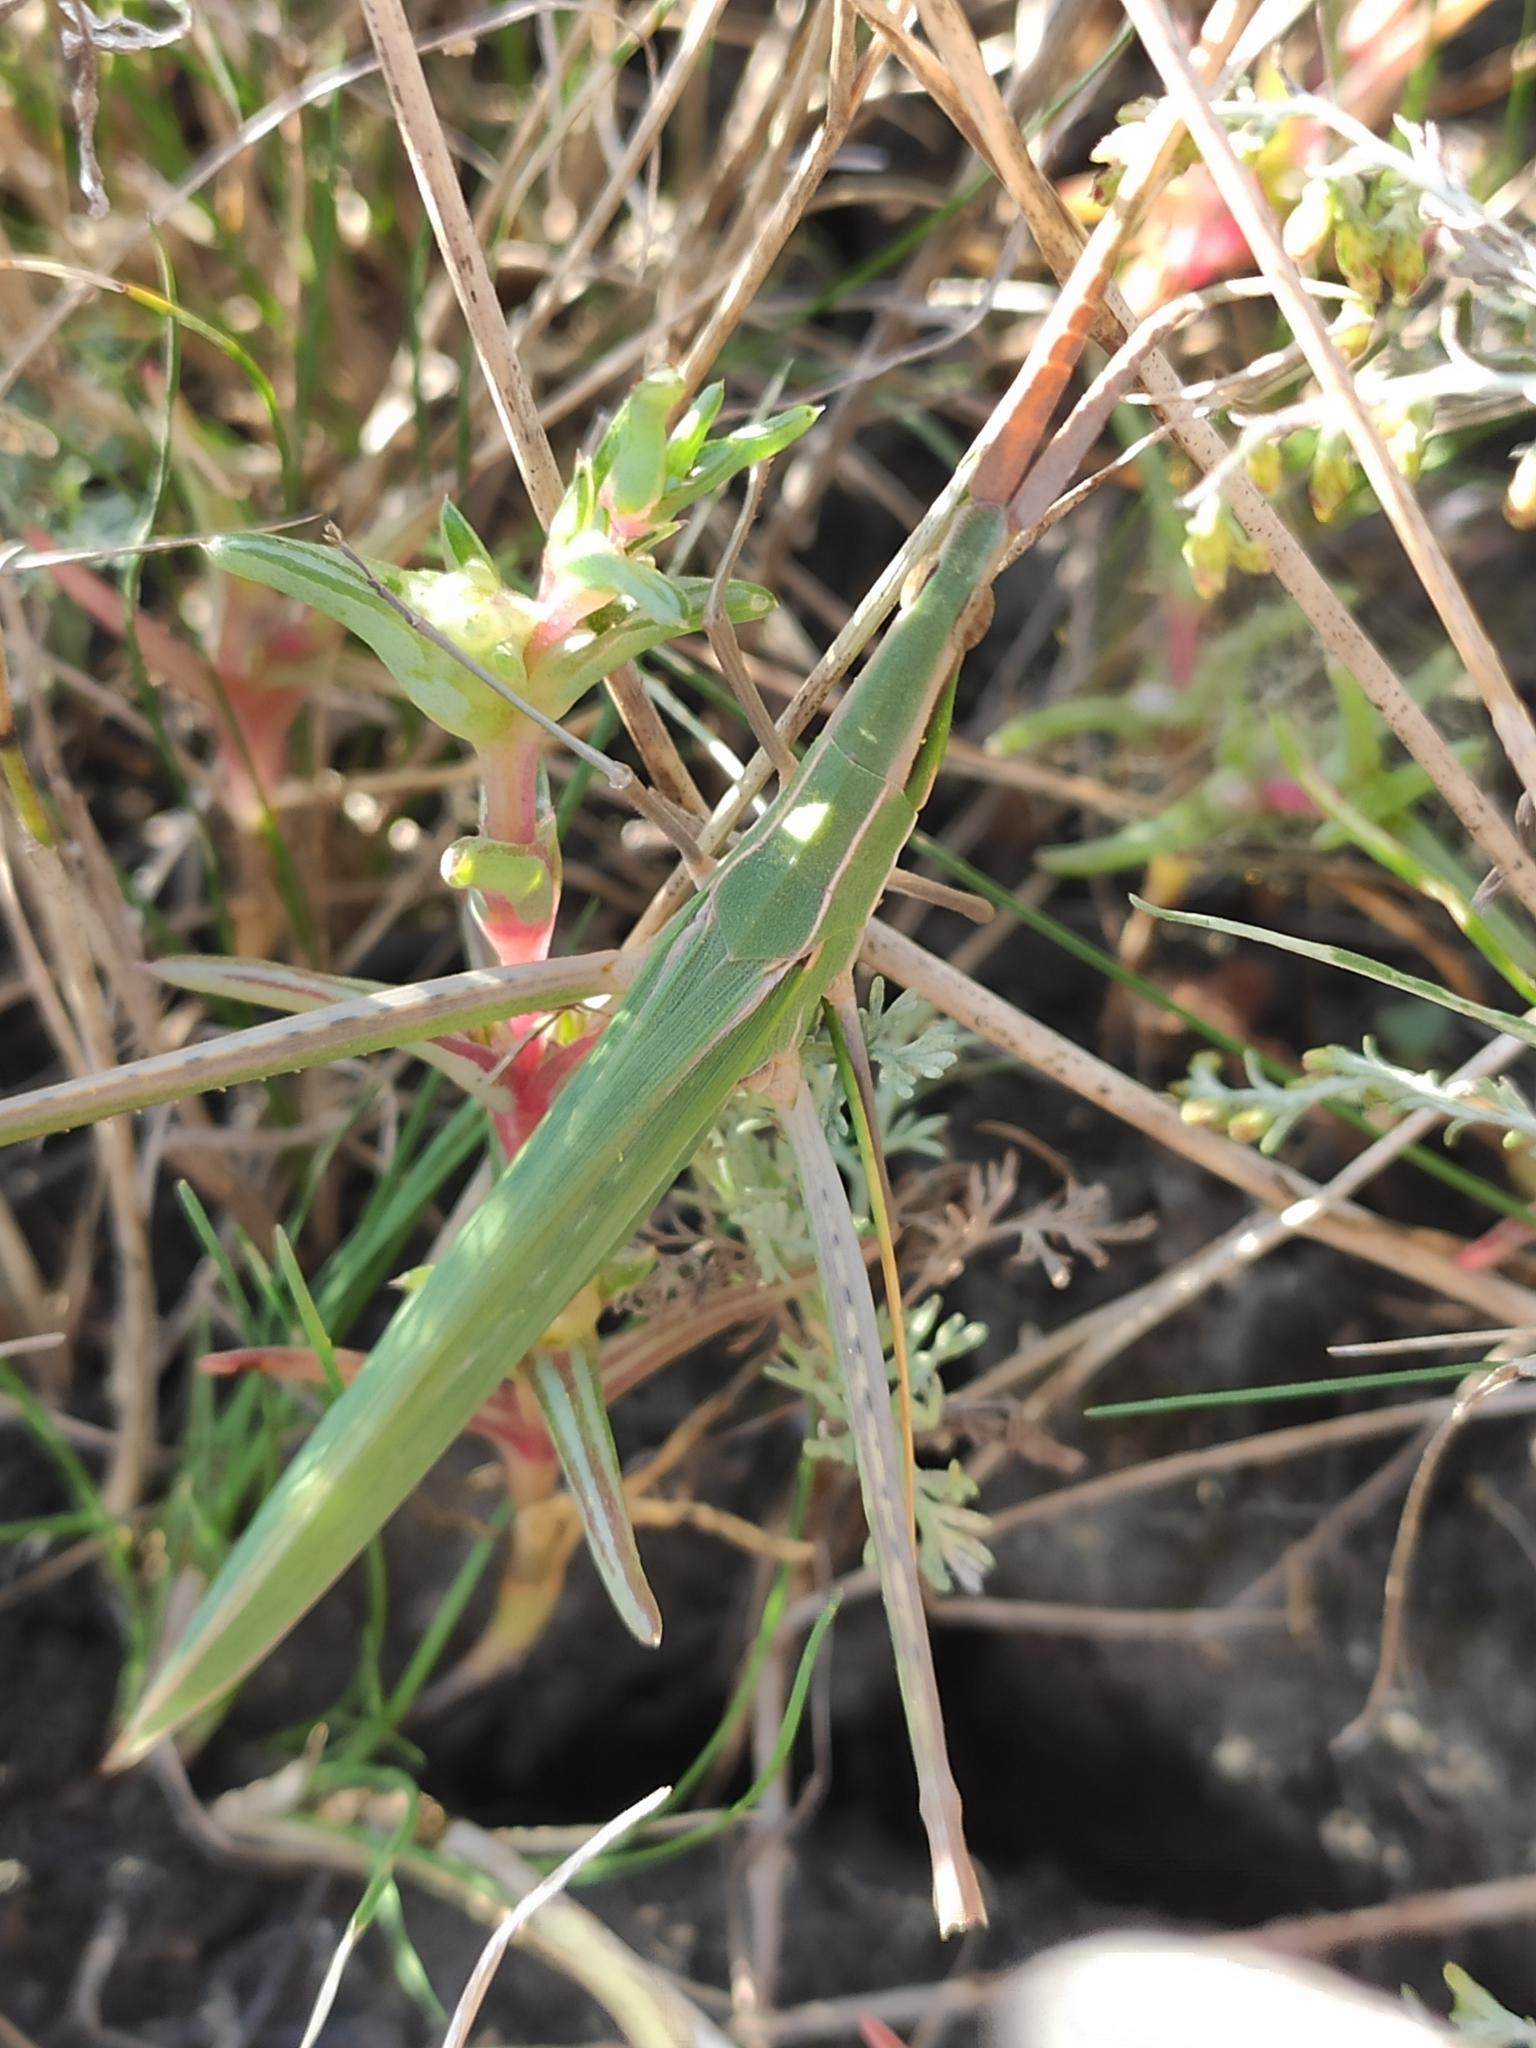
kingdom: Animalia
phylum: Arthropoda
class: Insecta
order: Orthoptera
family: Acrididae
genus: Acrida
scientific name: Acrida ungarica
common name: Common cone-headed grasshopper
